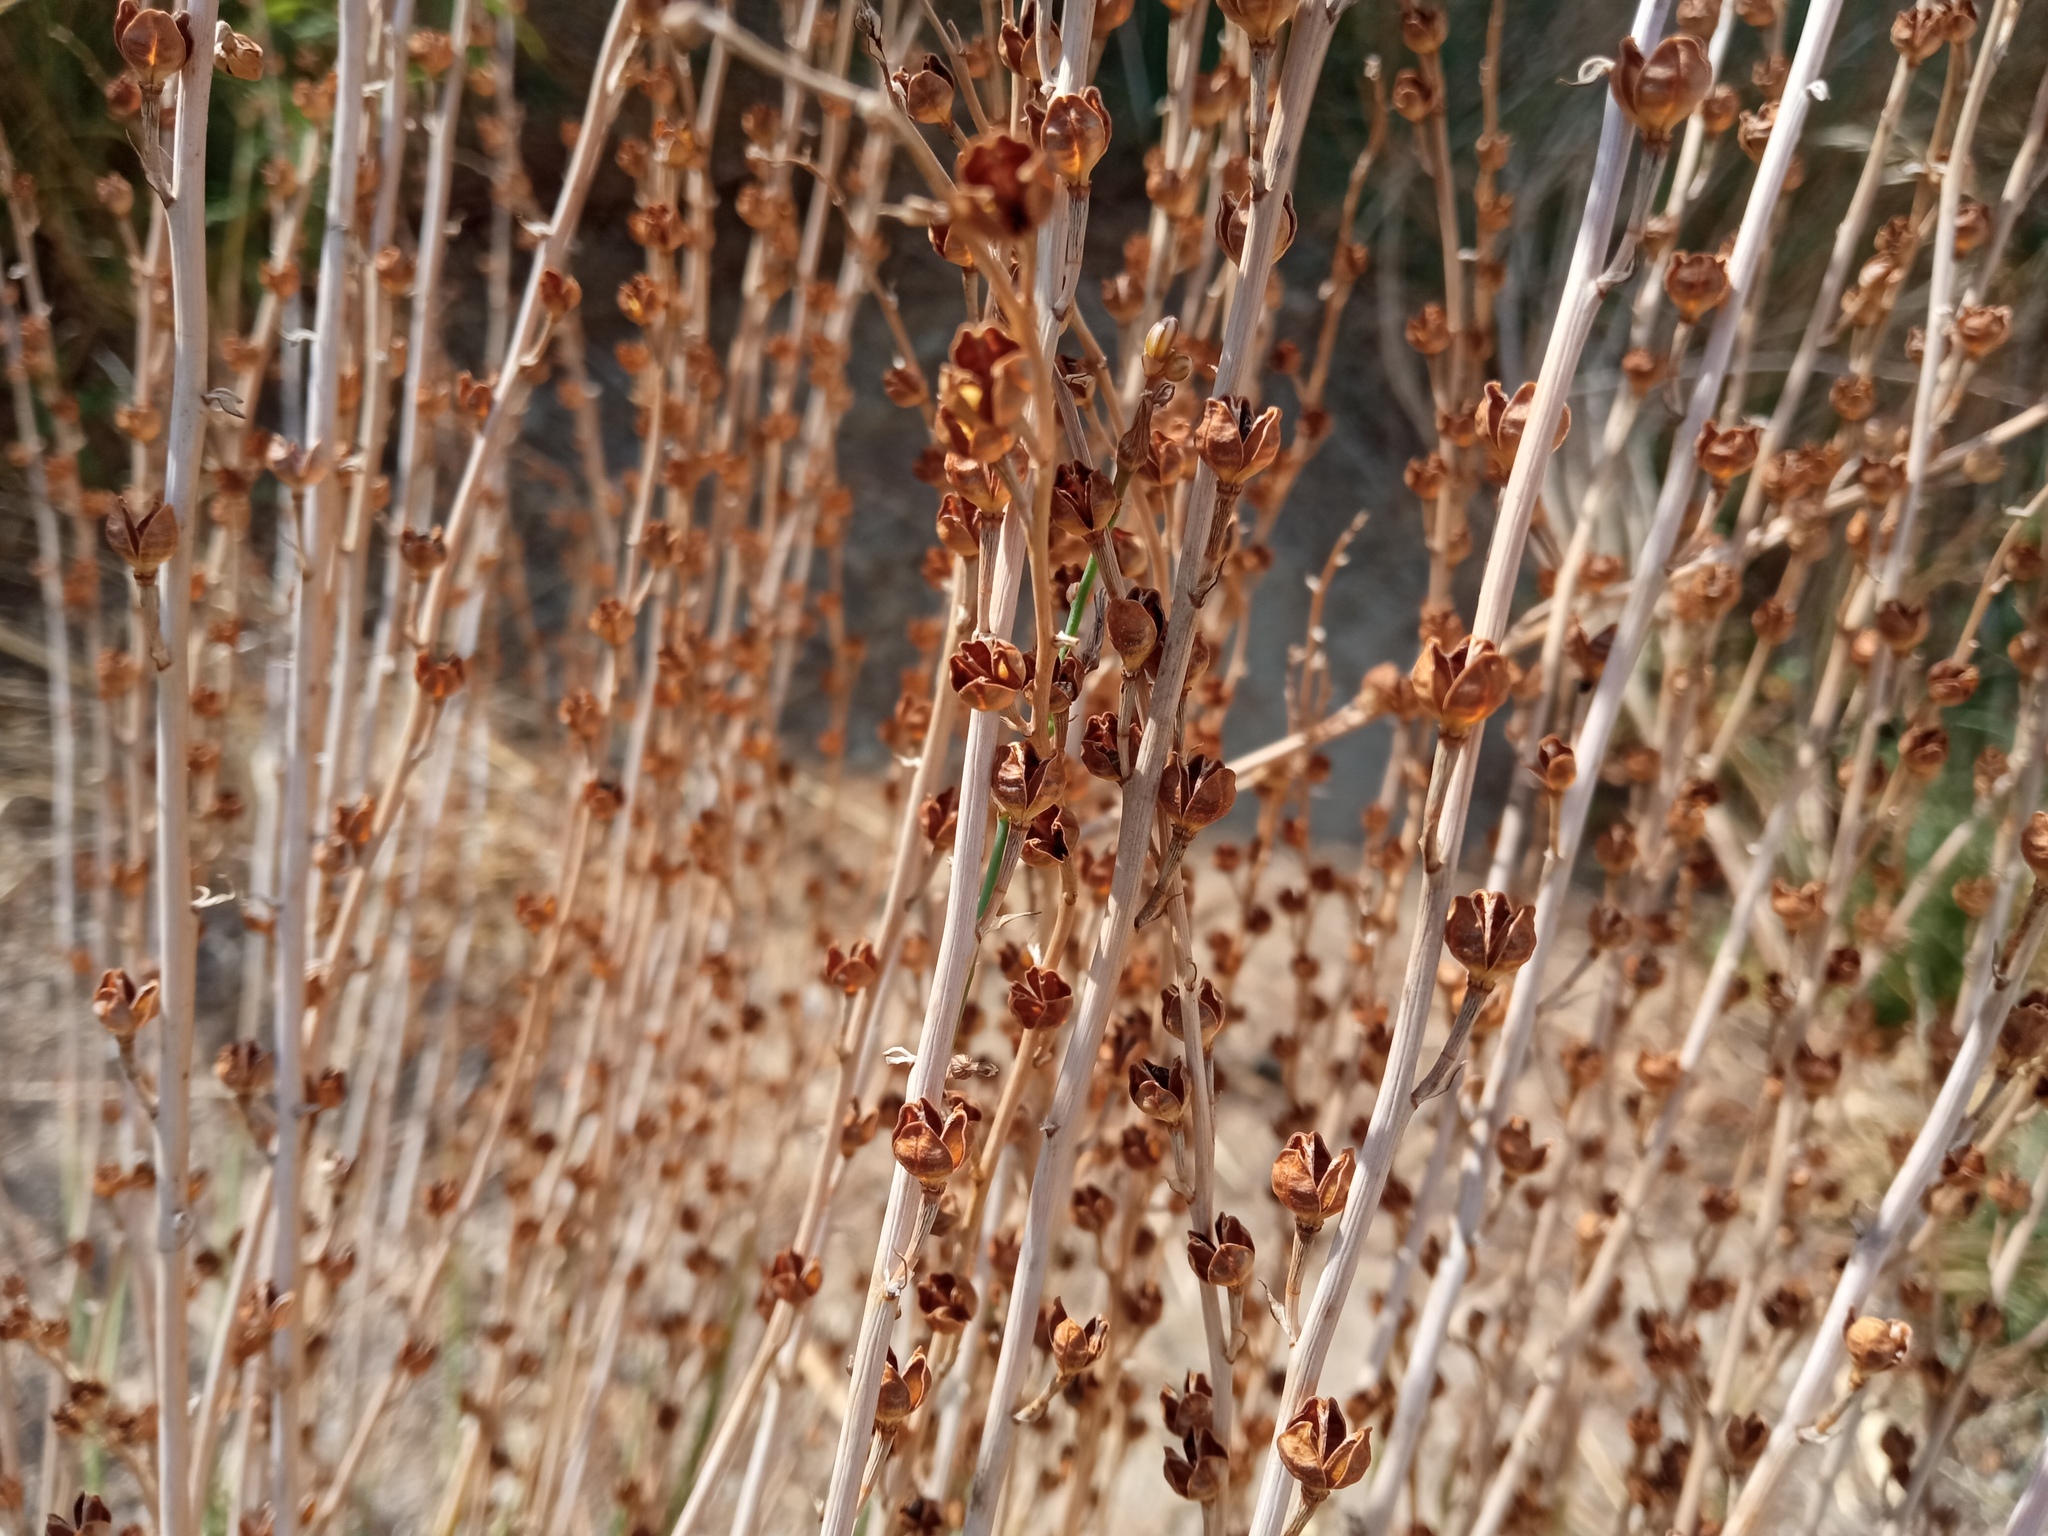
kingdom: Plantae
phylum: Tracheophyta
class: Liliopsida
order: Asparagales
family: Asphodelaceae
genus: Asphodelus
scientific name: Asphodelus fistulosus
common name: Onionweed
